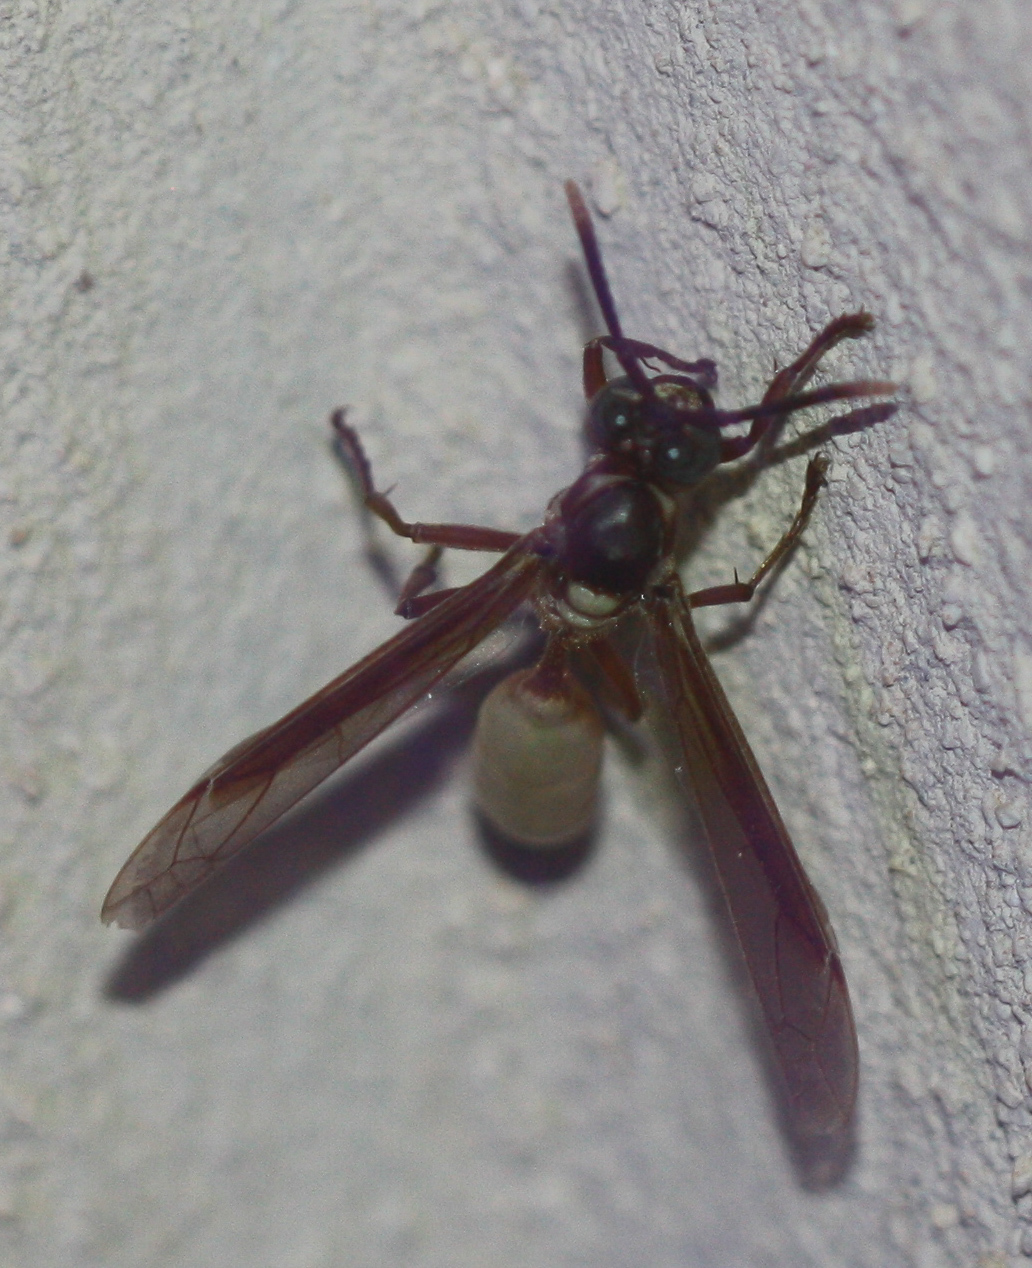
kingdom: Animalia
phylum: Arthropoda
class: Insecta
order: Hymenoptera
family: Vespidae
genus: Apoica
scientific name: Apoica pallens
